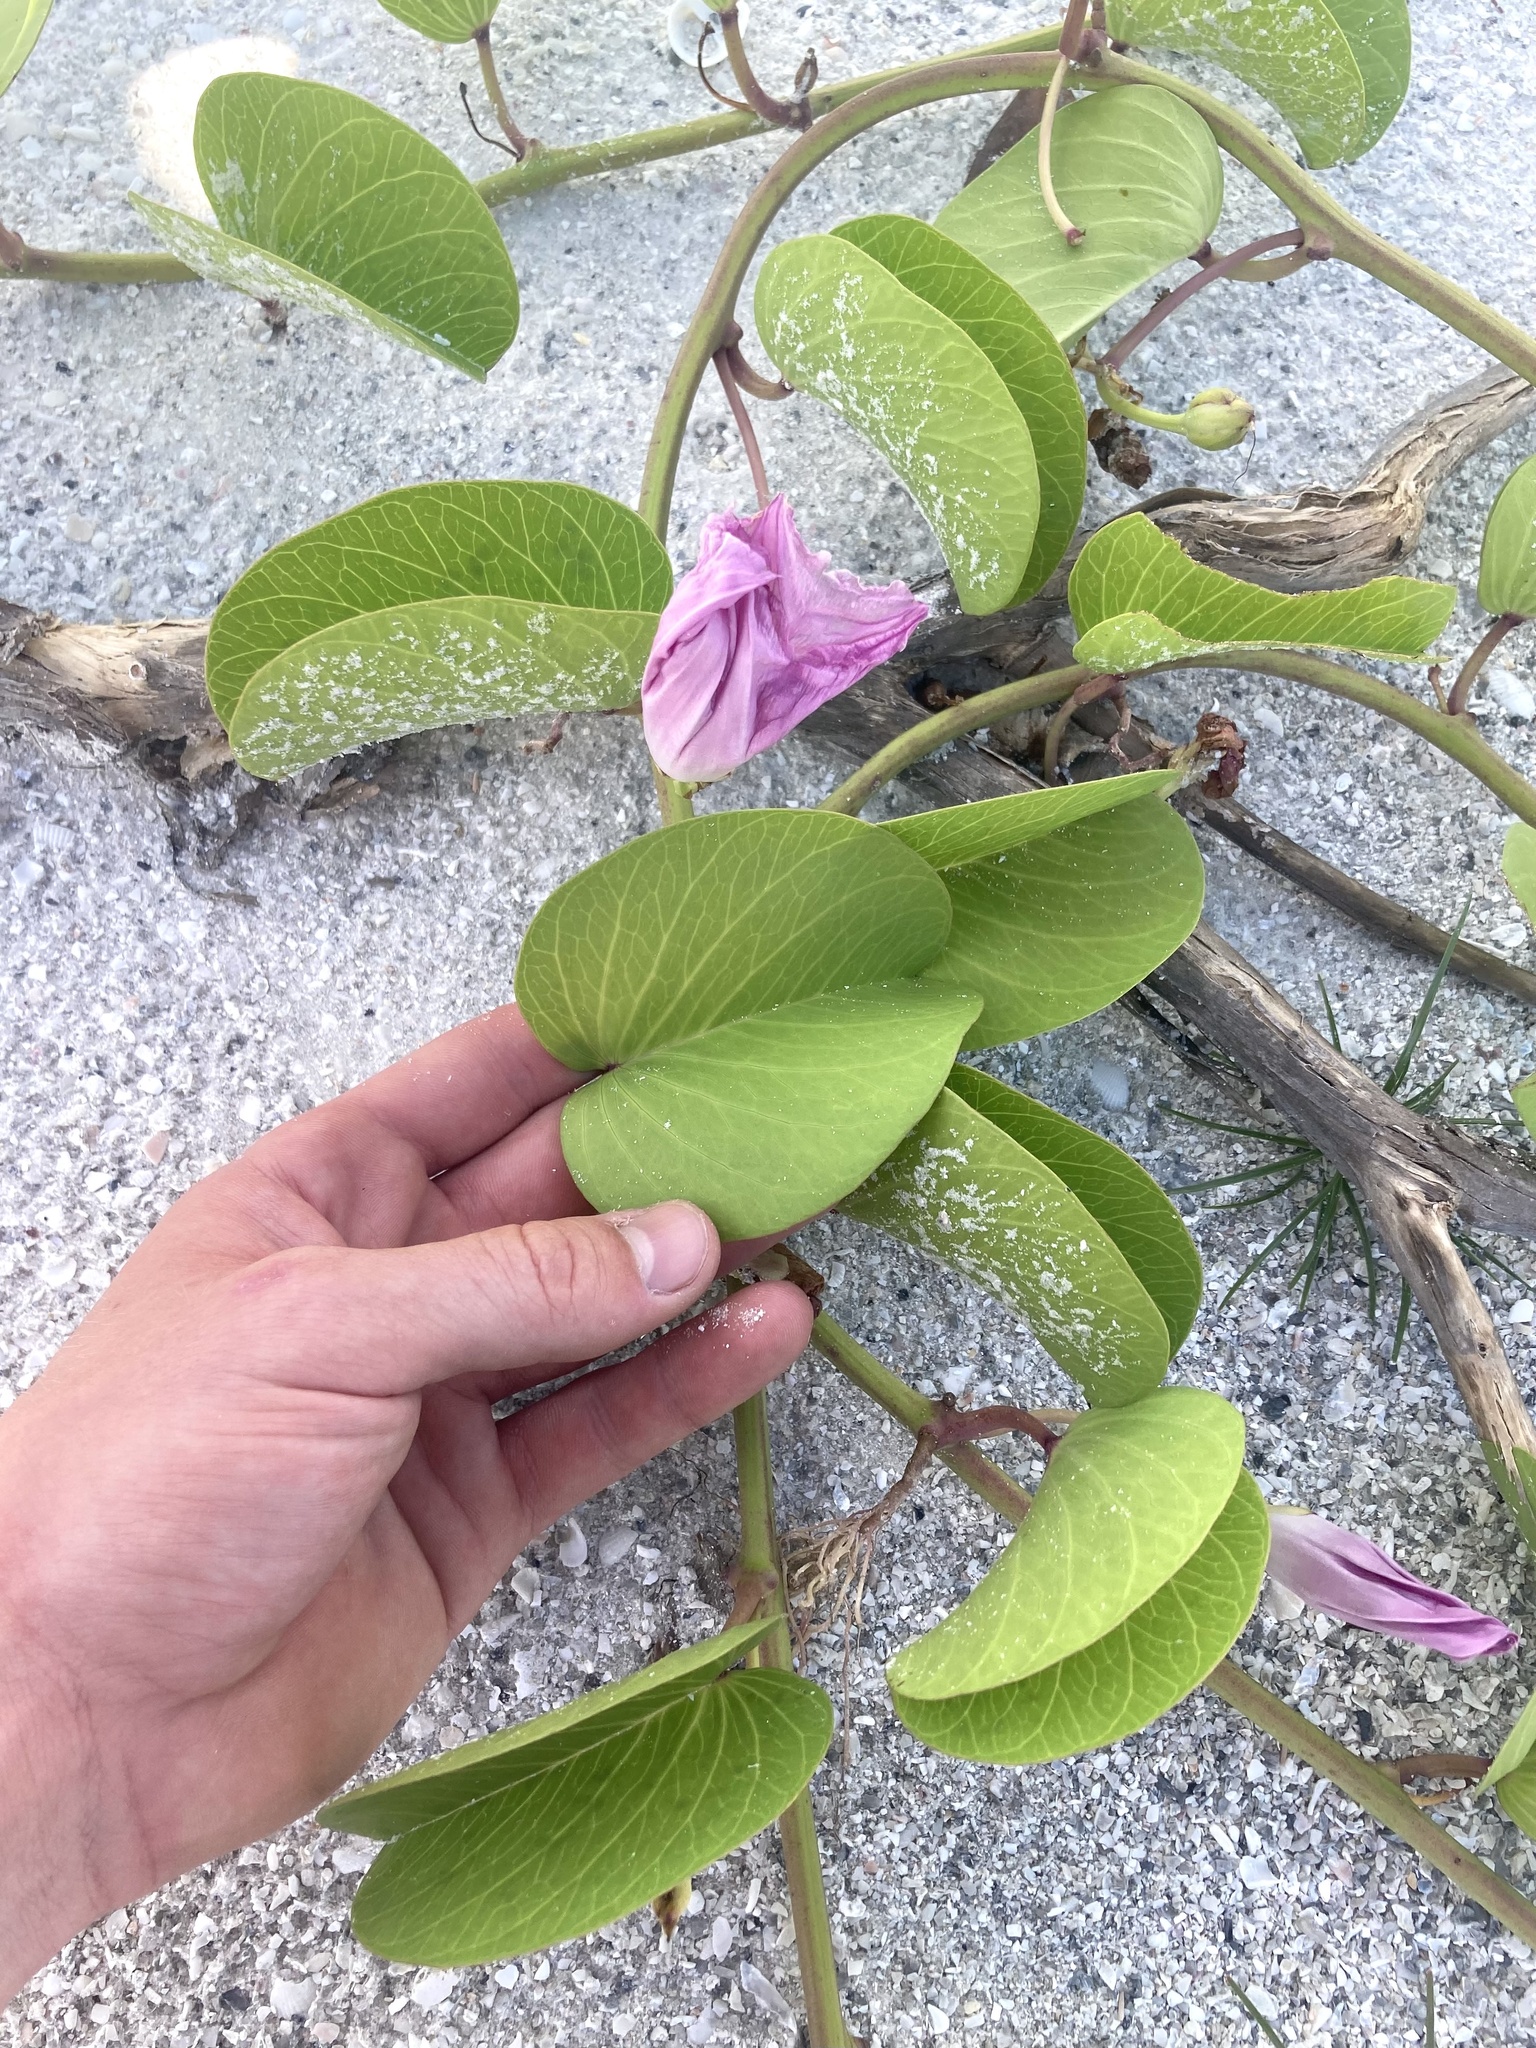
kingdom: Plantae
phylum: Tracheophyta
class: Magnoliopsida
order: Solanales
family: Convolvulaceae
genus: Ipomoea
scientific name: Ipomoea pes-caprae
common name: Beach morning glory
